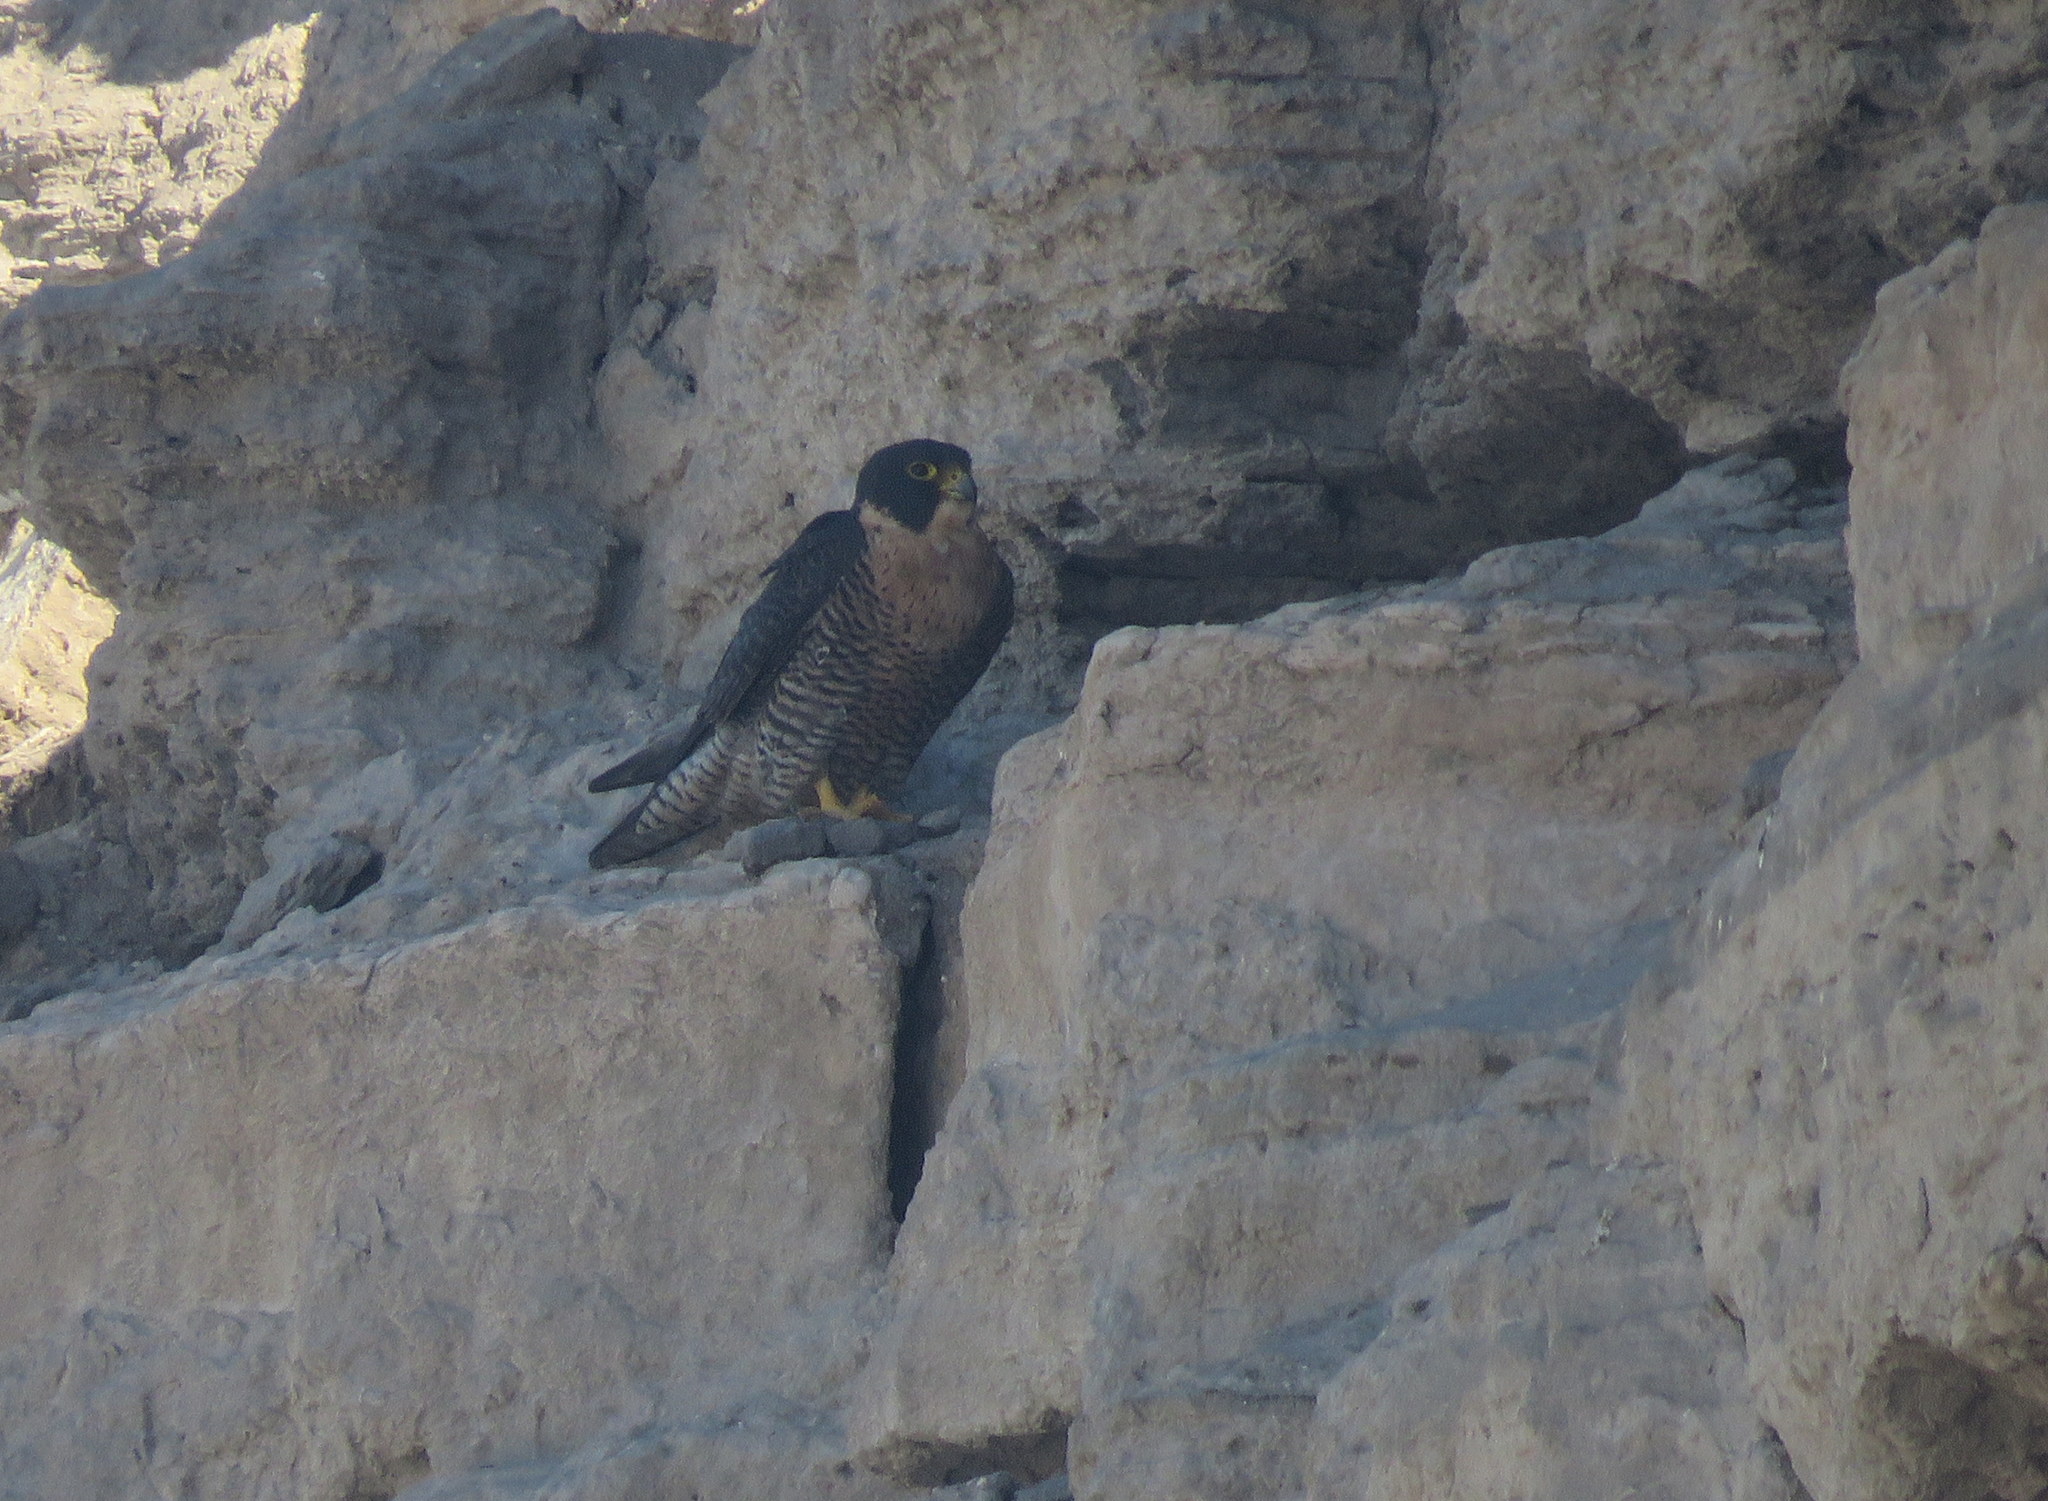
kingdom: Animalia
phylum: Chordata
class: Aves
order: Falconiformes
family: Falconidae
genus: Falco
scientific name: Falco peregrinus
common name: Peregrine falcon
